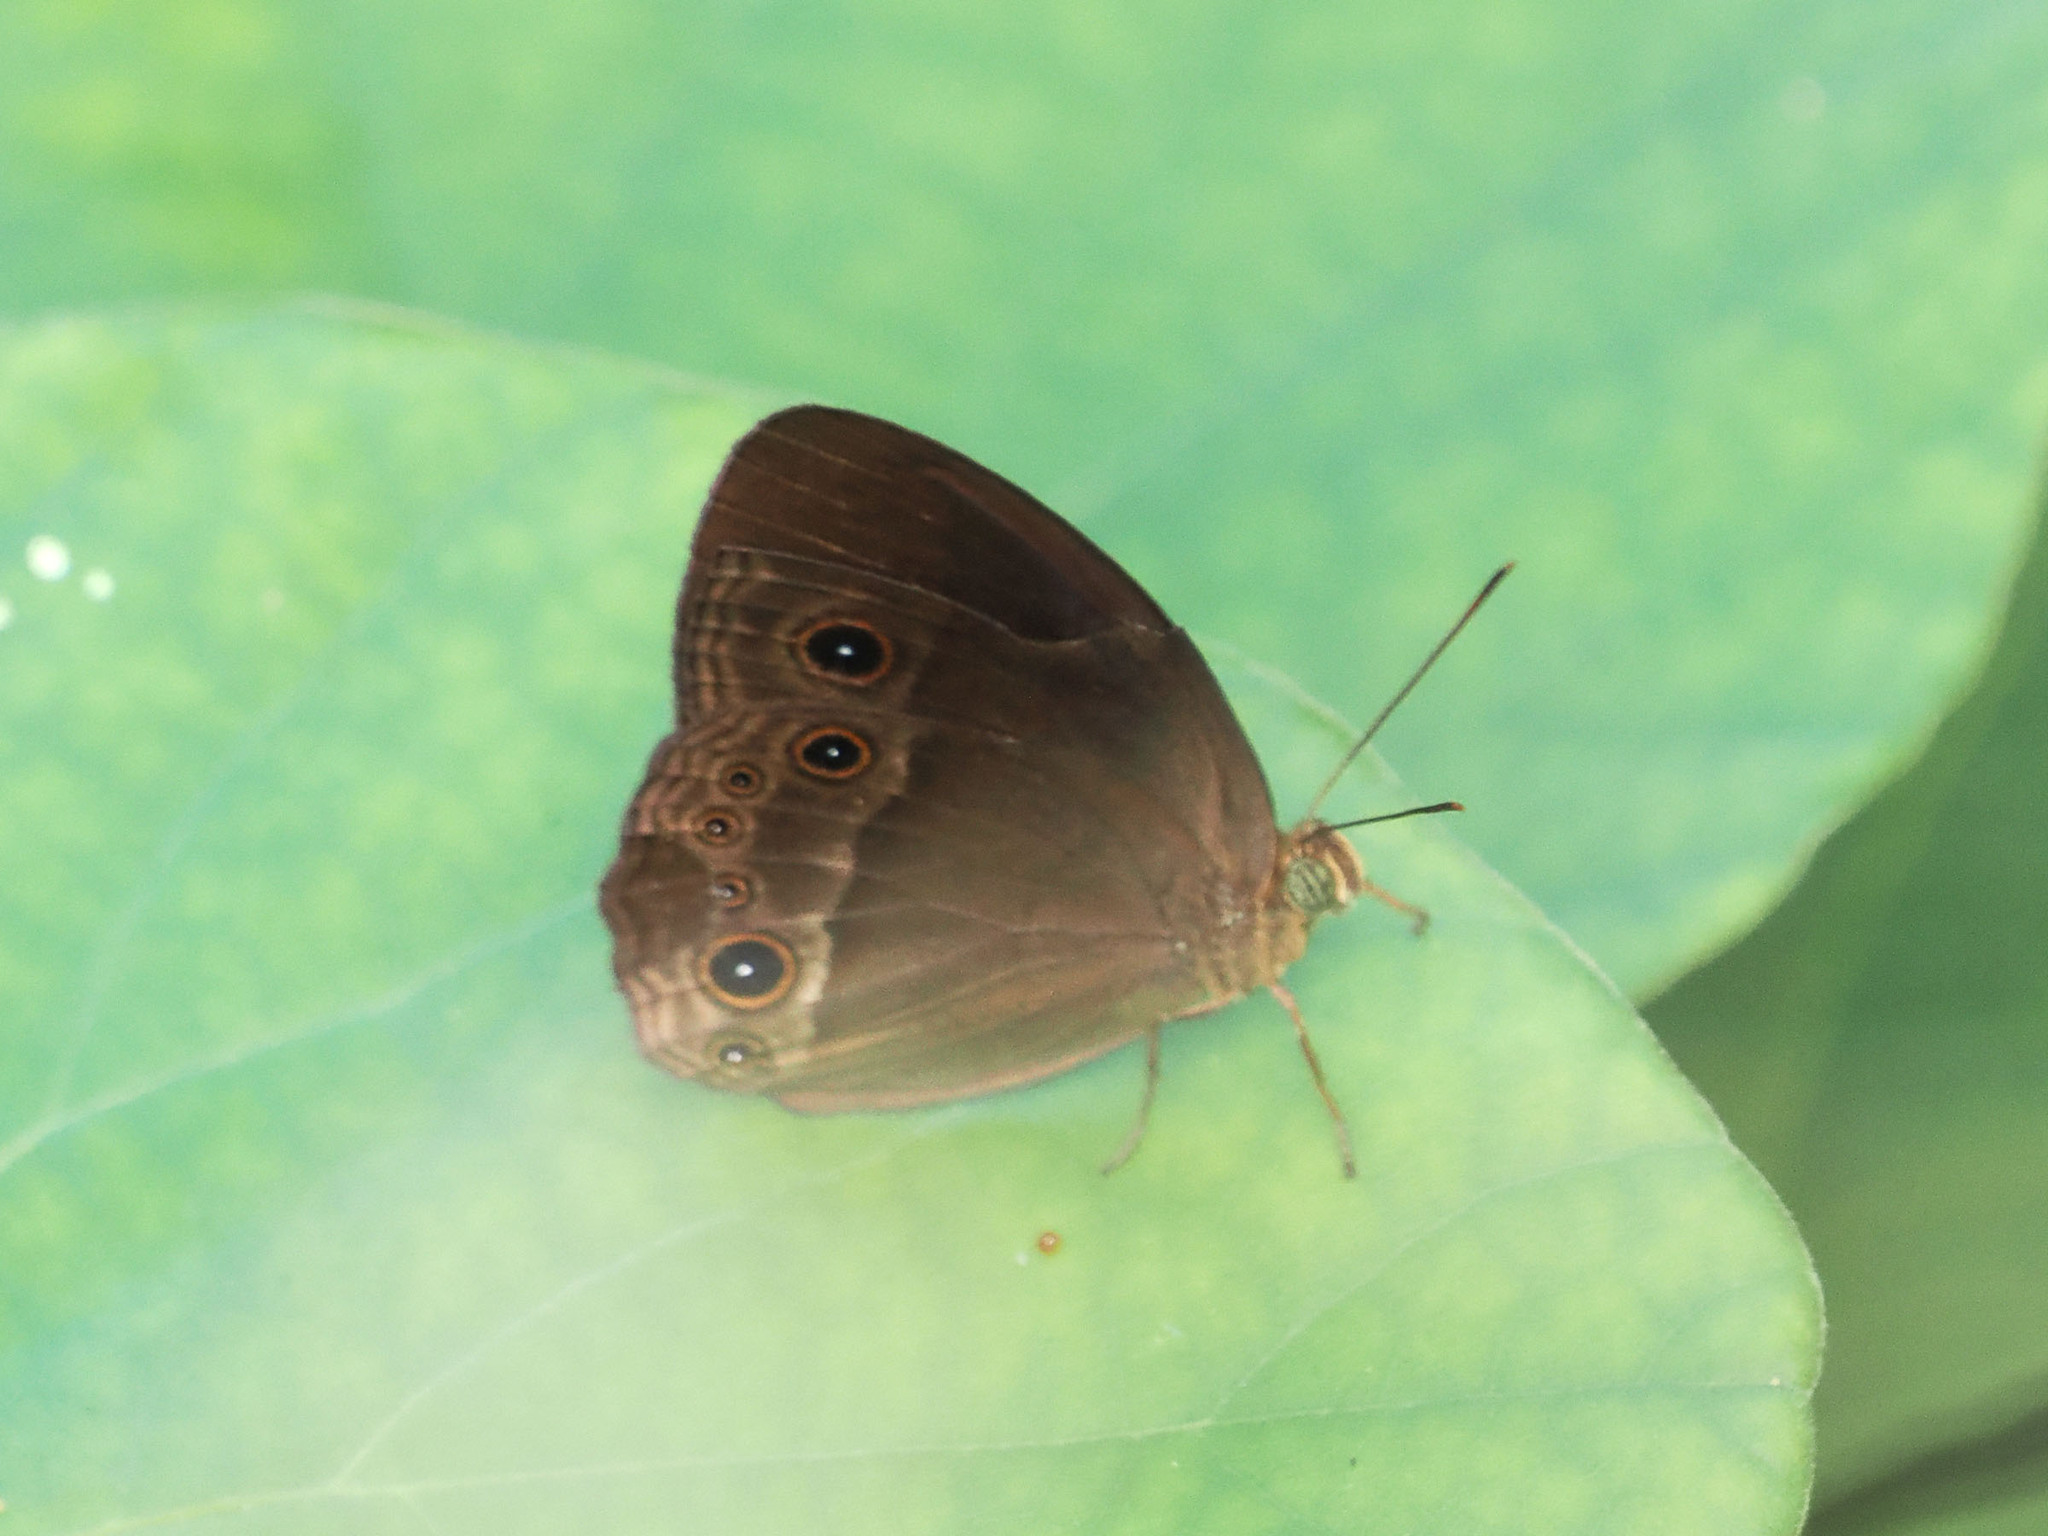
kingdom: Animalia
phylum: Arthropoda
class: Insecta
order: Lepidoptera
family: Nymphalidae
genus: Mycalesis
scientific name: Mycalesis tagala
